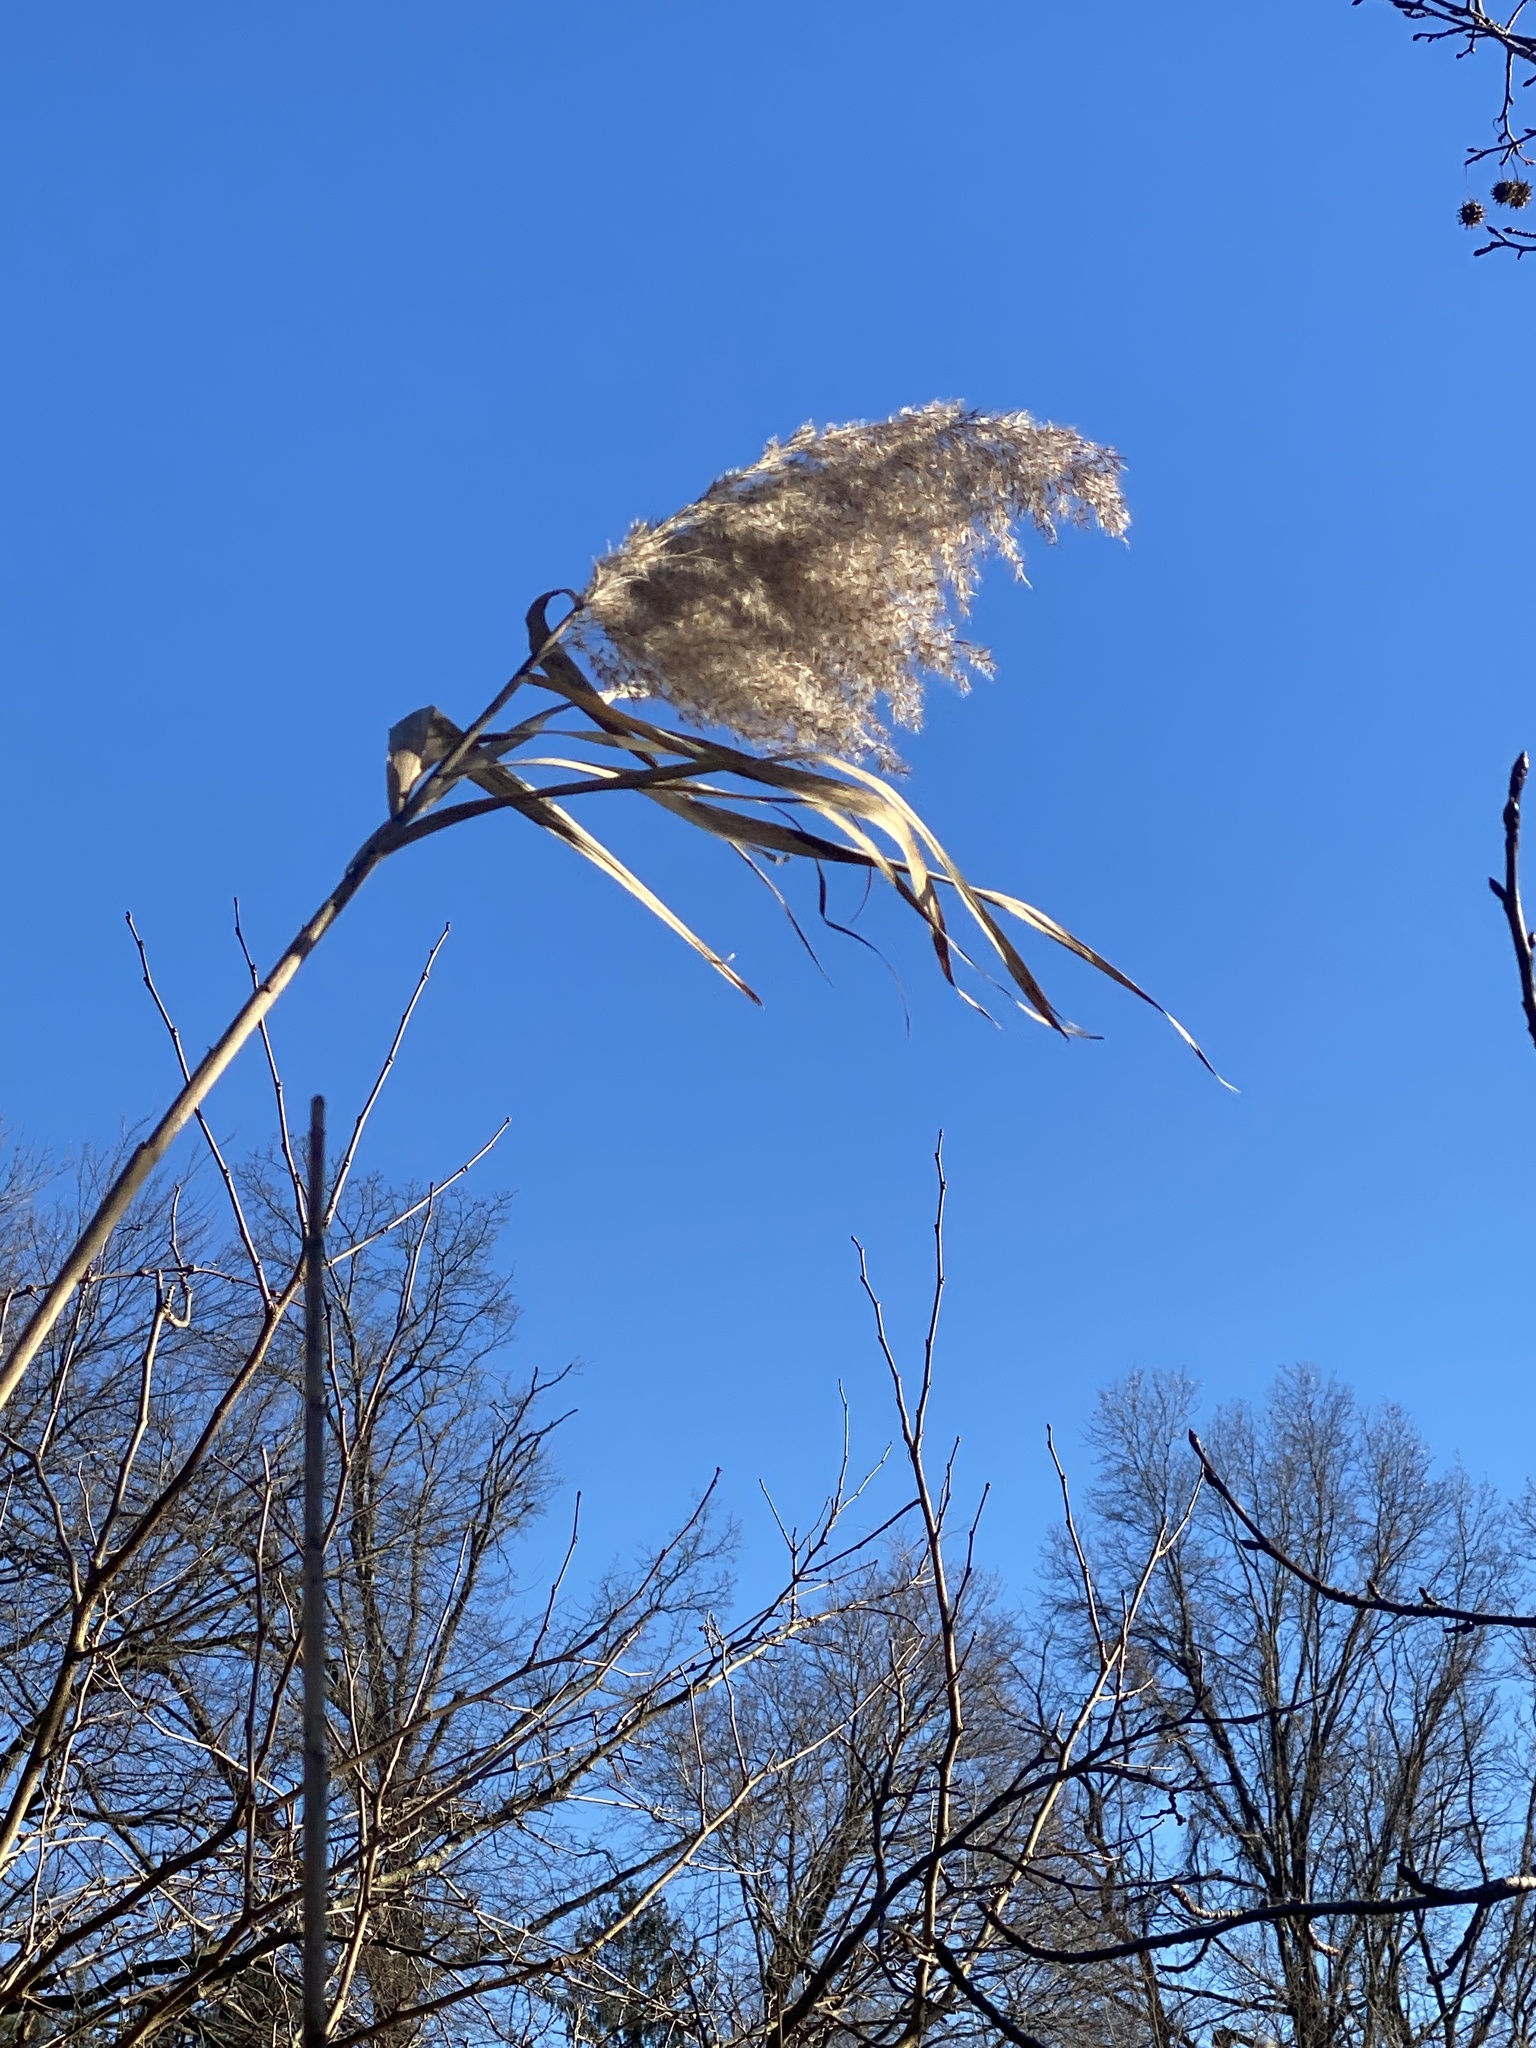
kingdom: Plantae
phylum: Tracheophyta
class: Liliopsida
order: Poales
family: Poaceae
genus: Phragmites
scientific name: Phragmites australis
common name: Common reed
